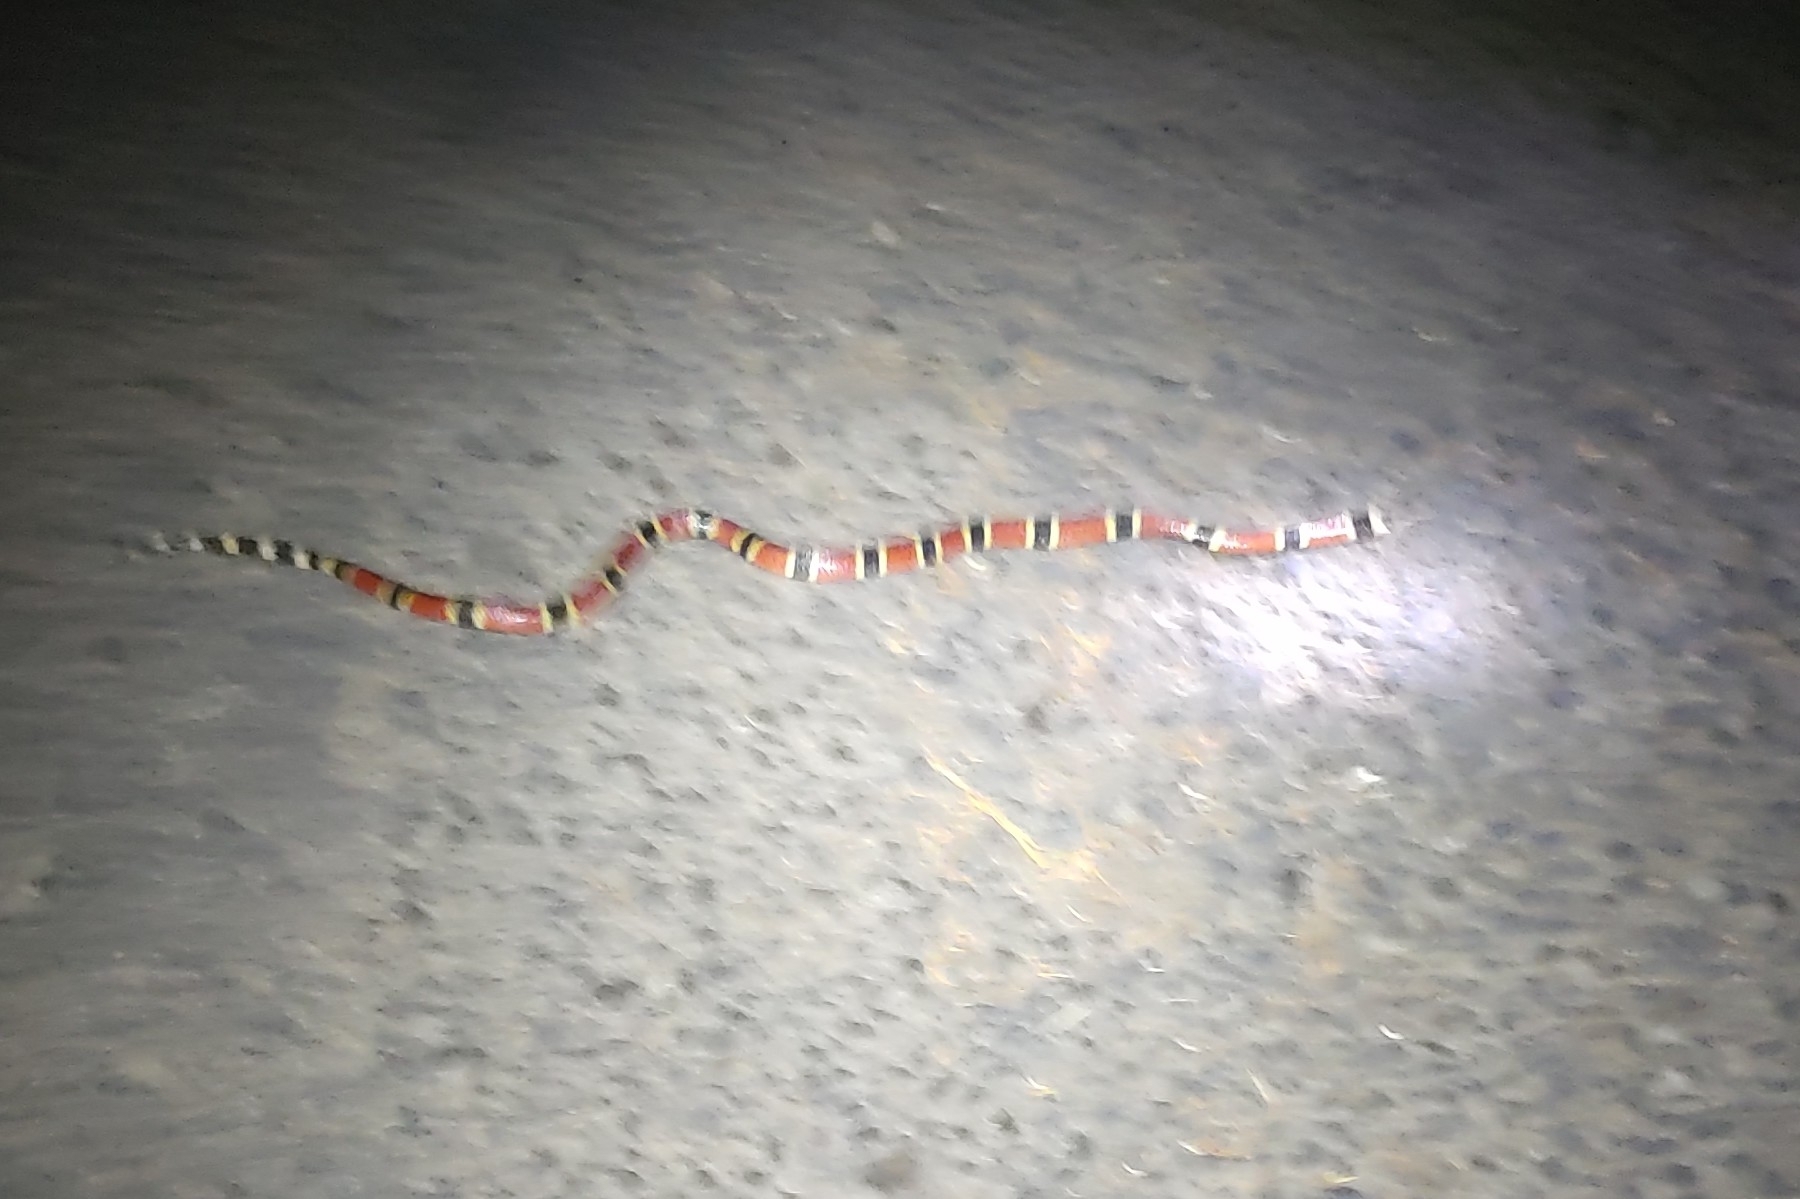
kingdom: Animalia
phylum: Chordata
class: Squamata
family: Elapidae
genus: Micrurus
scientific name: Micrurus nigrocinctus
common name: Babaspul [babaspul]
